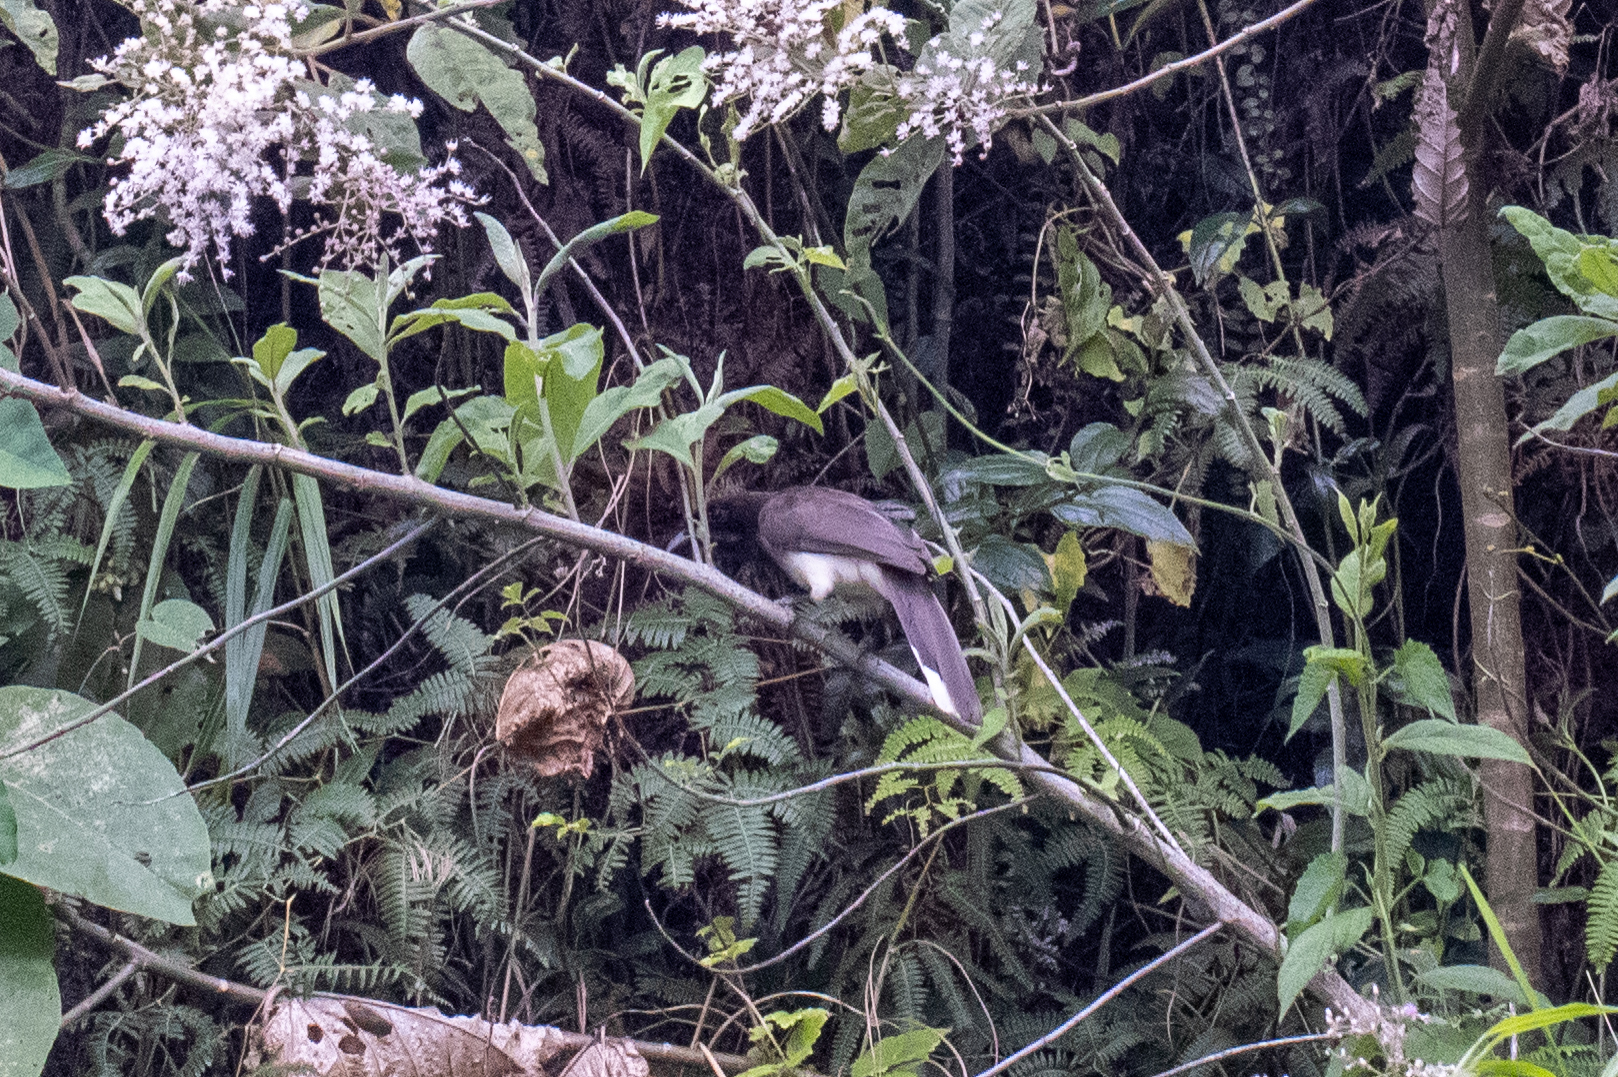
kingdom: Animalia
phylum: Chordata
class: Aves
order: Passeriformes
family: Corvidae
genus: Psilorhinus
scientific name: Psilorhinus morio
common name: Brown jay
